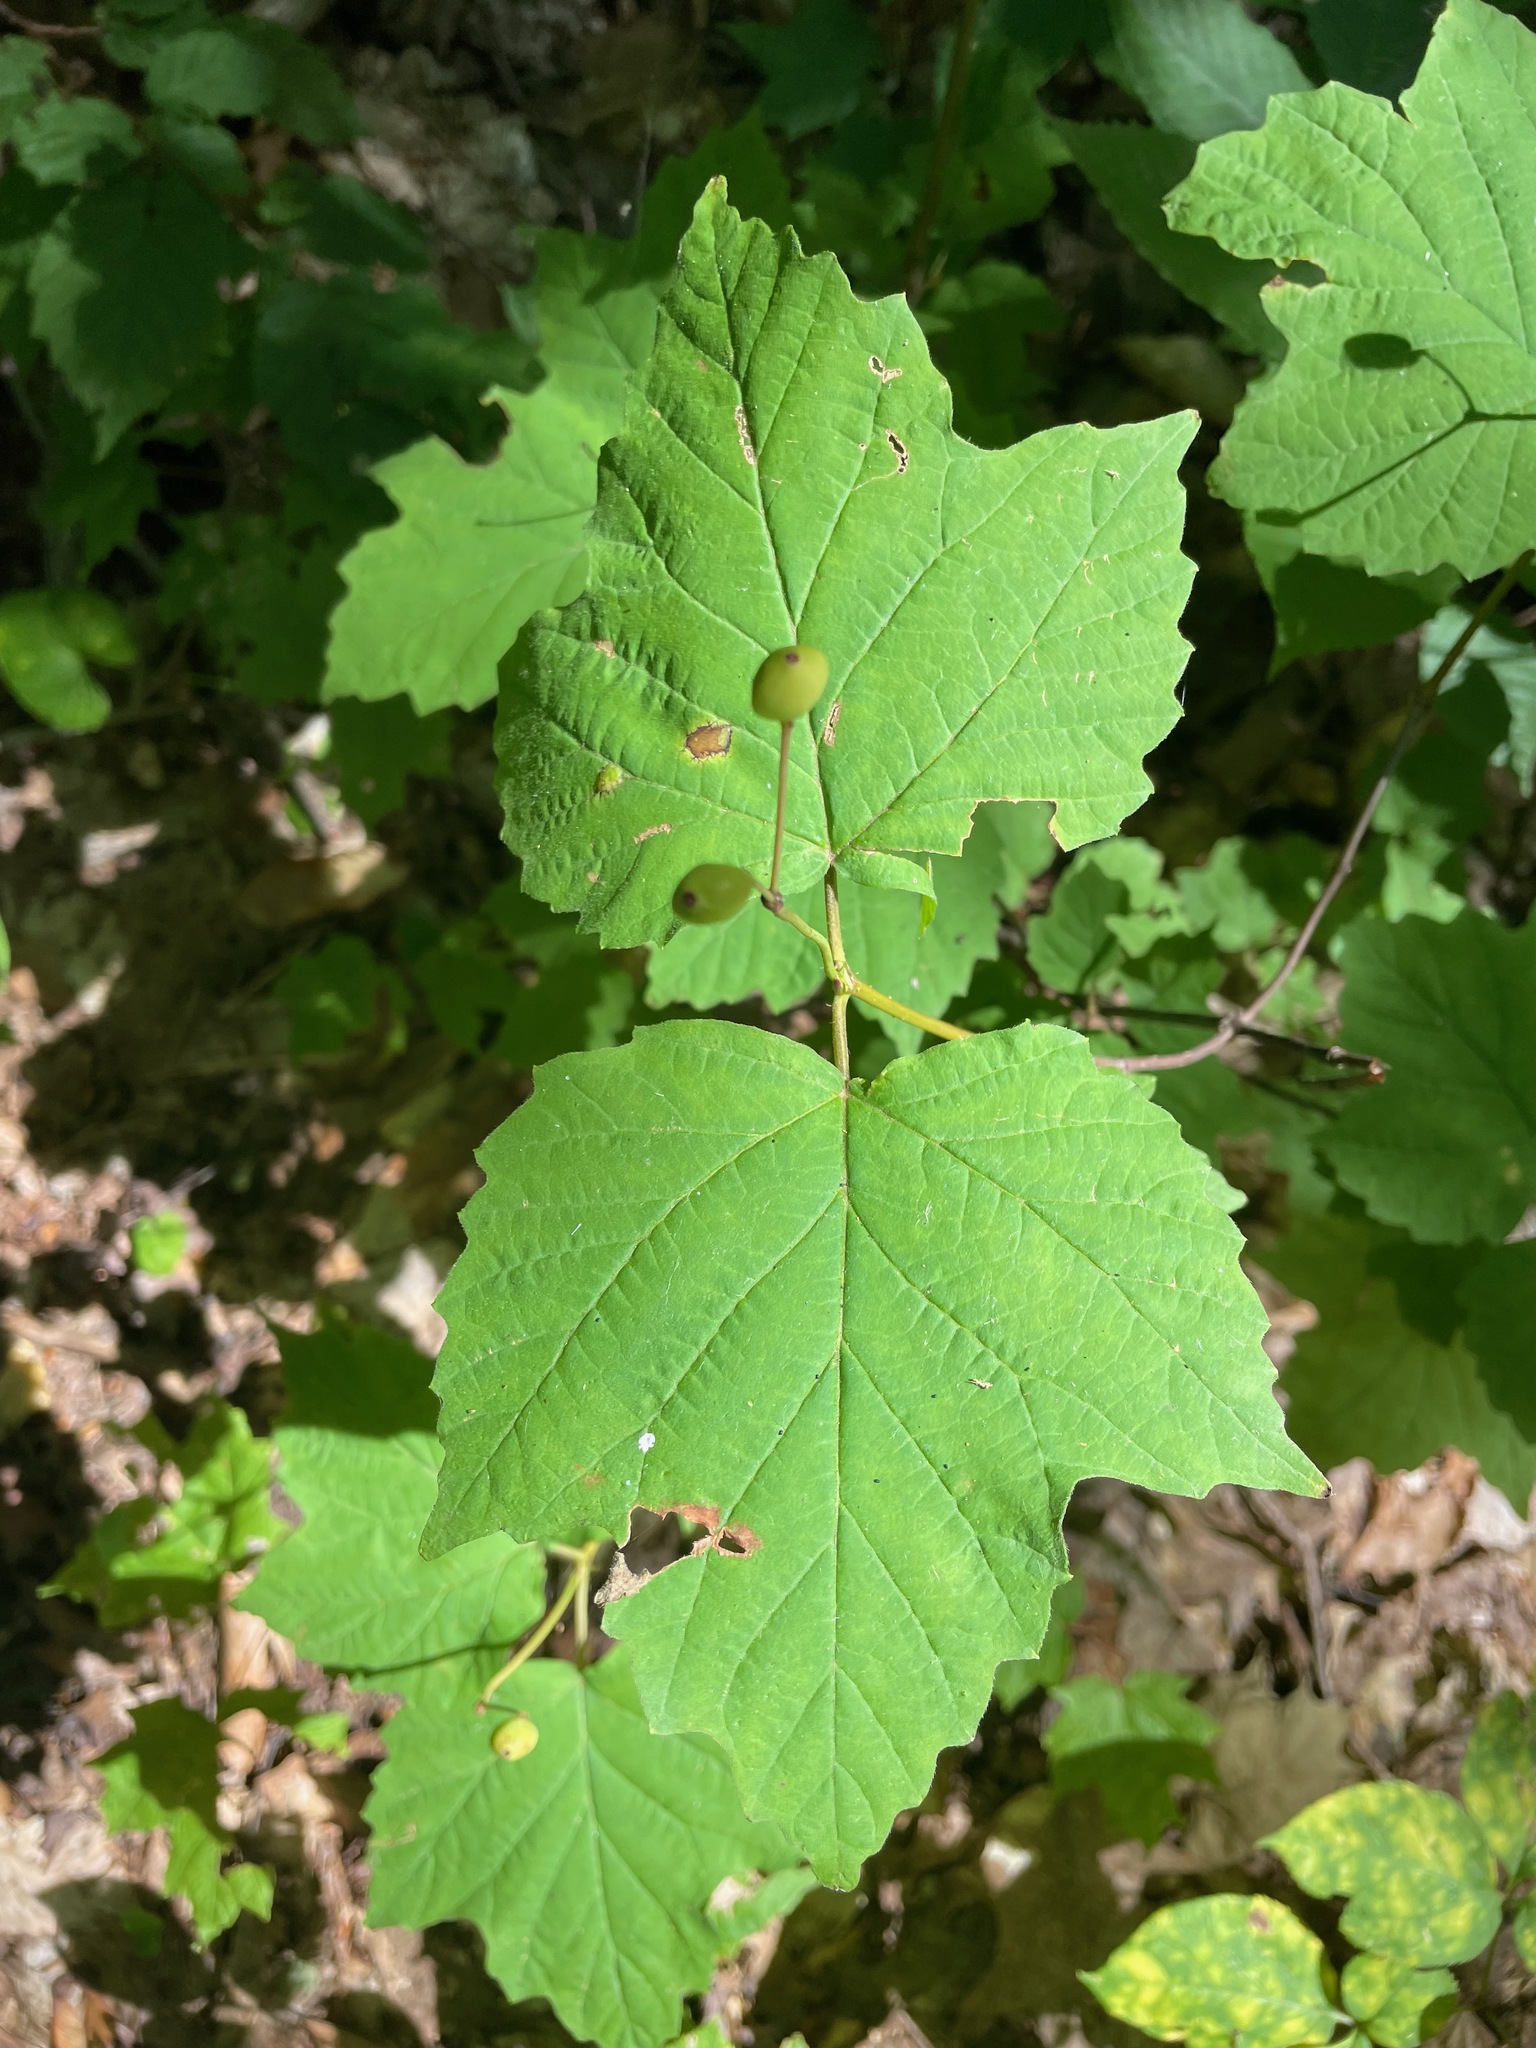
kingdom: Plantae
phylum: Tracheophyta
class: Magnoliopsida
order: Dipsacales
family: Viburnaceae
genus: Viburnum
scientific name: Viburnum acerifolium
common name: Dockmackie
